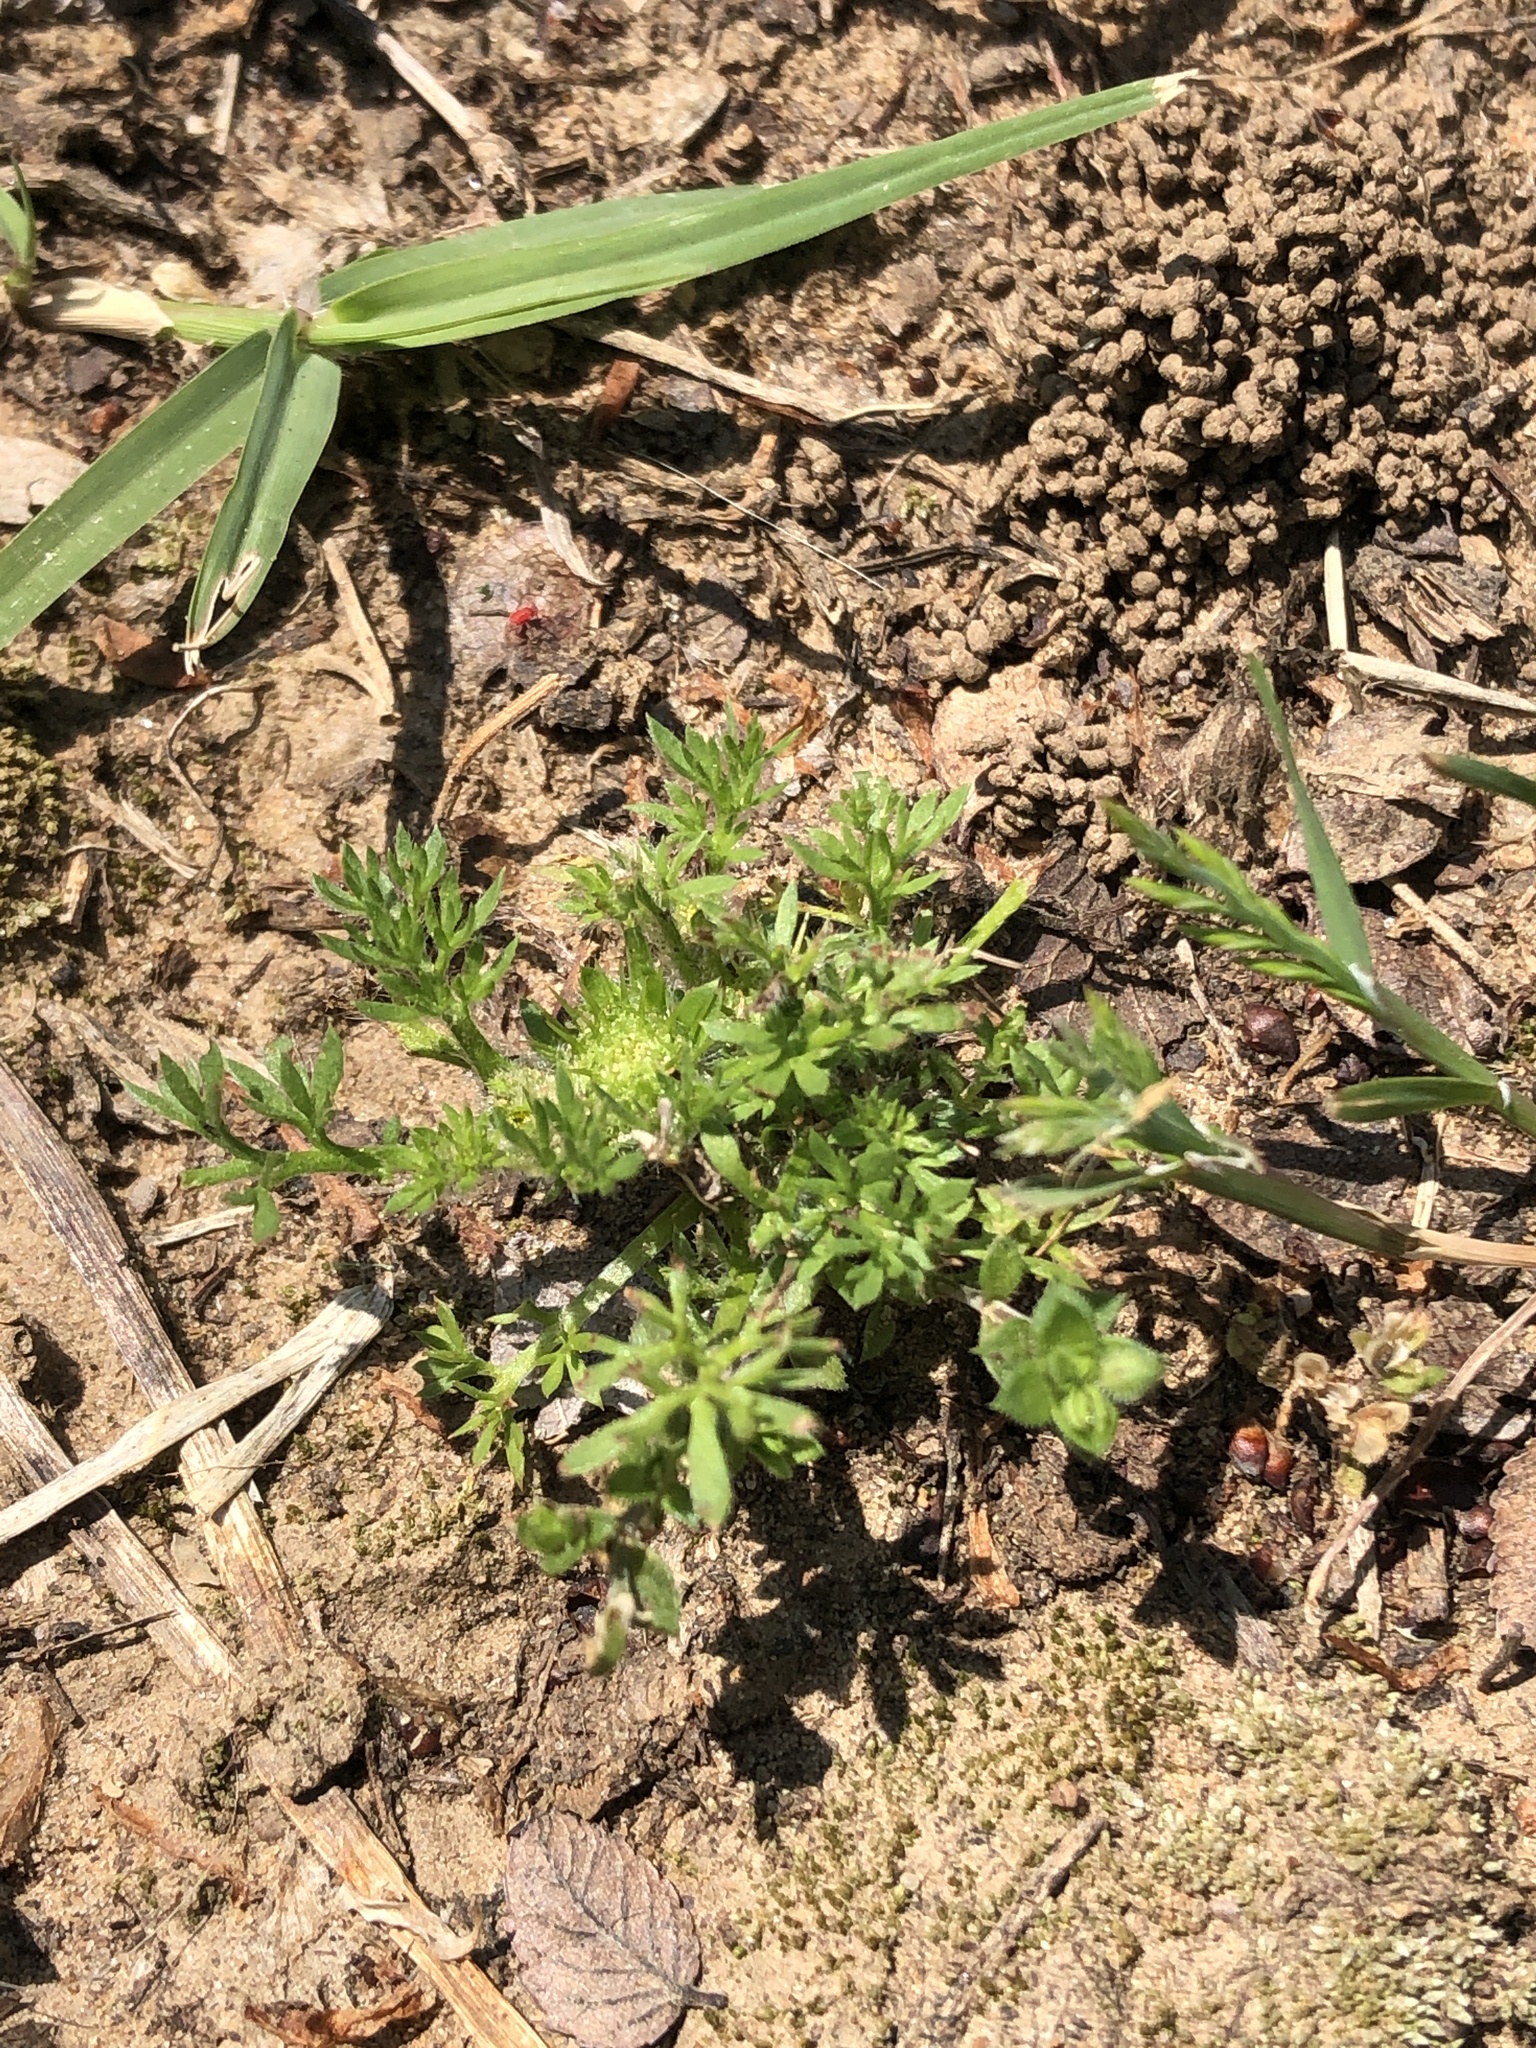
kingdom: Plantae
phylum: Tracheophyta
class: Magnoliopsida
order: Asterales
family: Asteraceae
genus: Soliva
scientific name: Soliva sessilis
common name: Field burrweed
